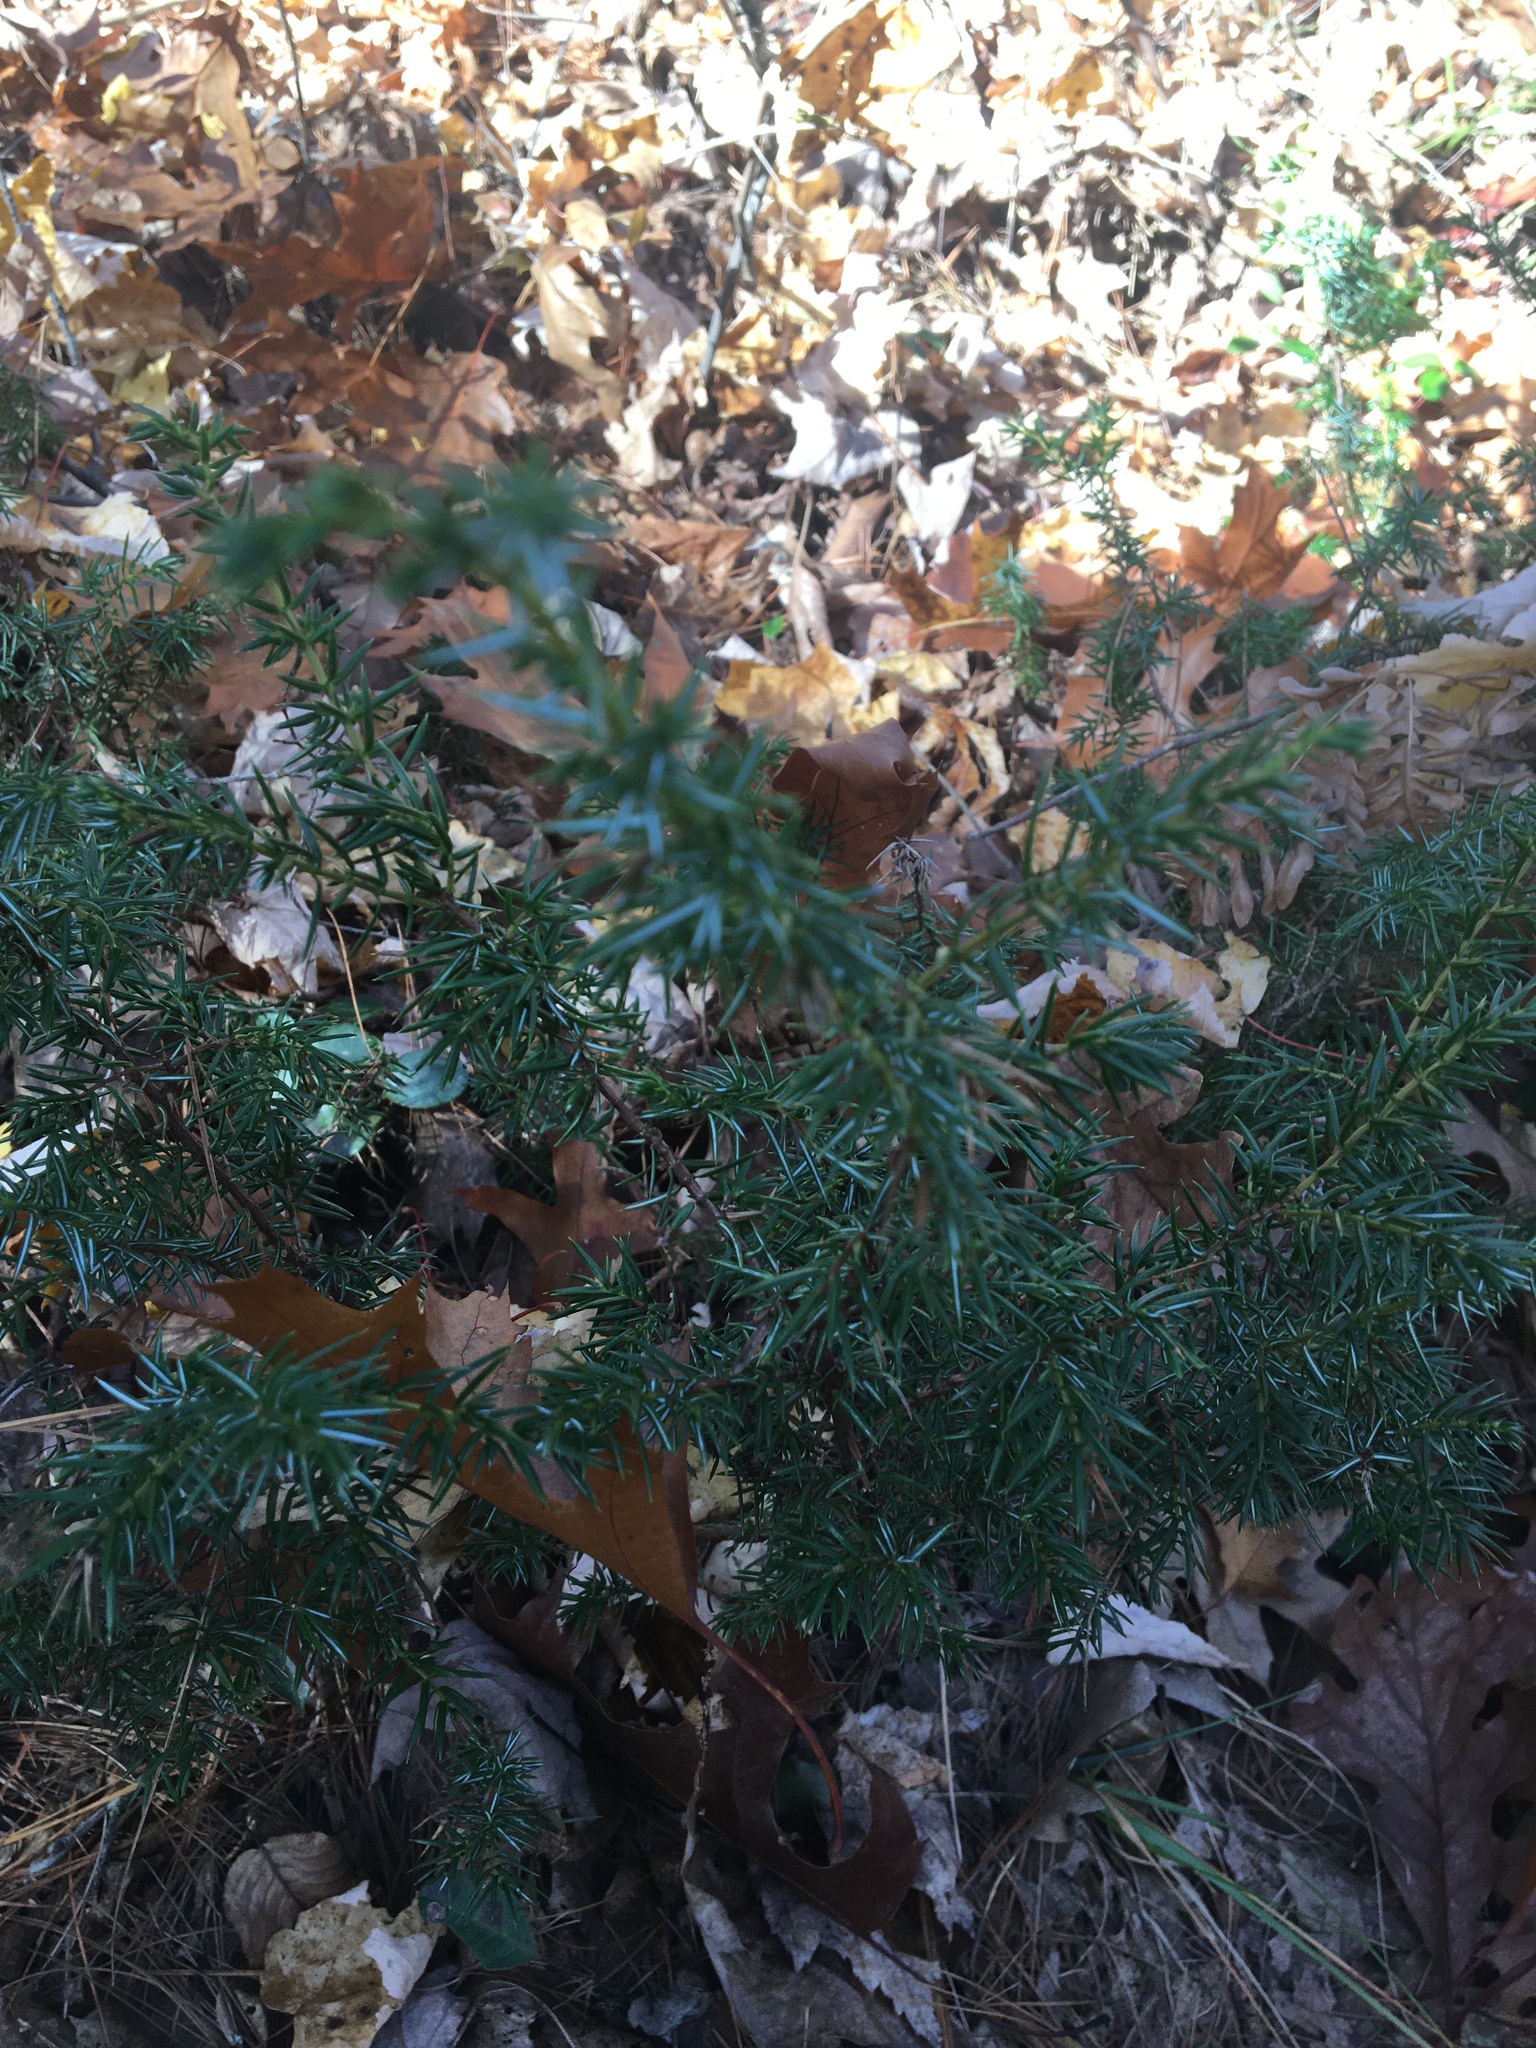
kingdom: Plantae
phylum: Tracheophyta
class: Pinopsida
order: Pinales
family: Cupressaceae
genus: Juniperus
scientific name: Juniperus communis
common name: Common juniper
